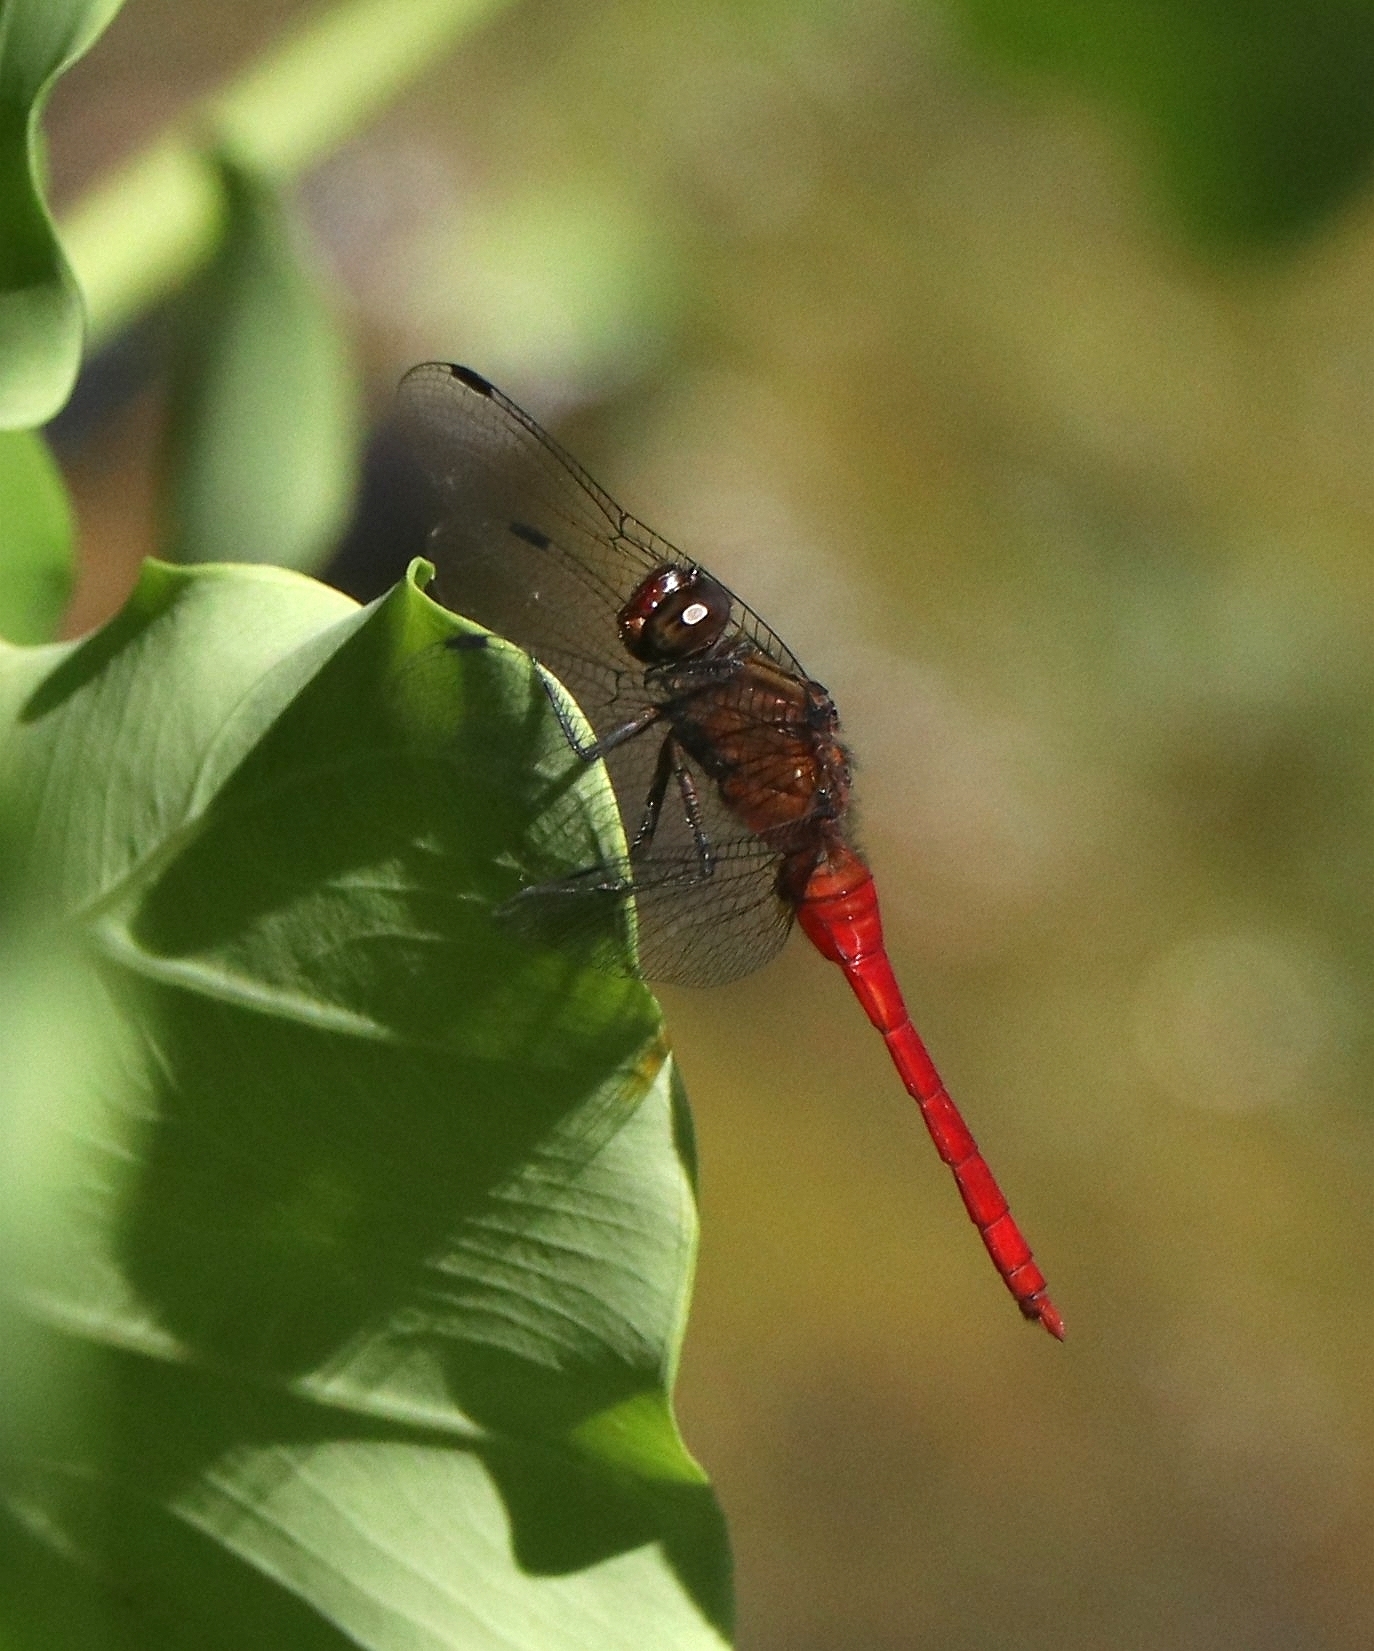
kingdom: Animalia
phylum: Arthropoda
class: Insecta
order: Odonata
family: Libellulidae
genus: Orthetrum
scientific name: Orthetrum chrysis
